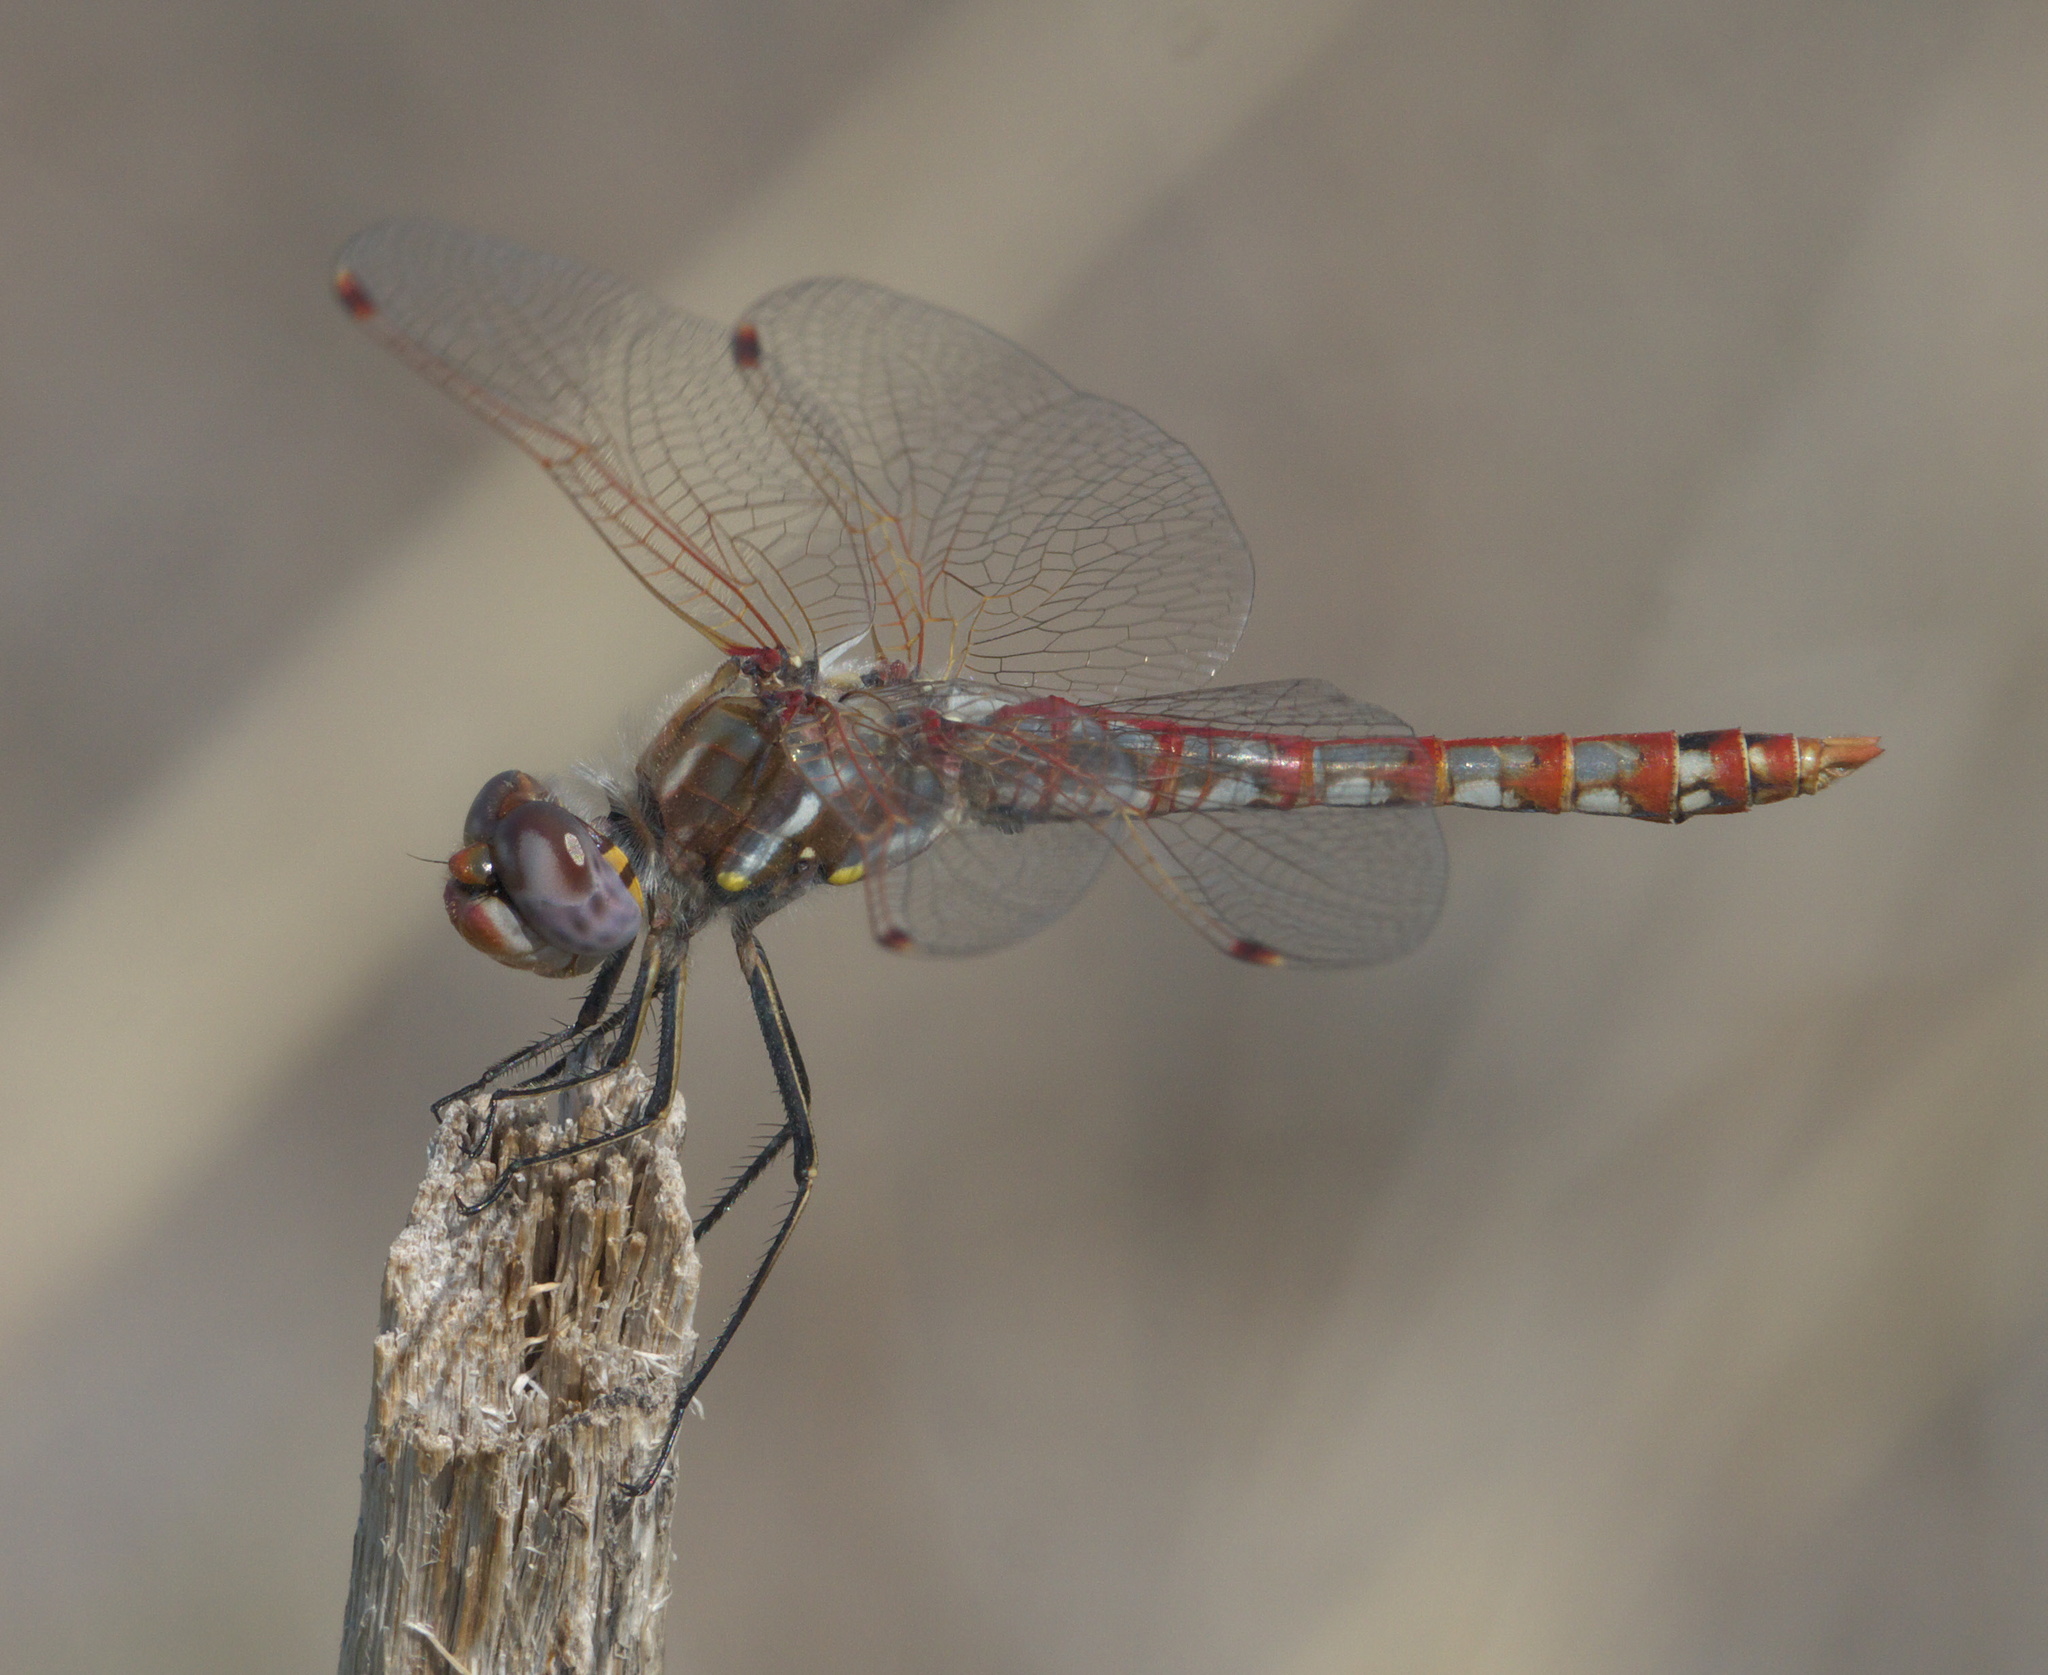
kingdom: Animalia
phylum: Arthropoda
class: Insecta
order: Odonata
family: Libellulidae
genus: Sympetrum
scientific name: Sympetrum corruptum
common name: Variegated meadowhawk
